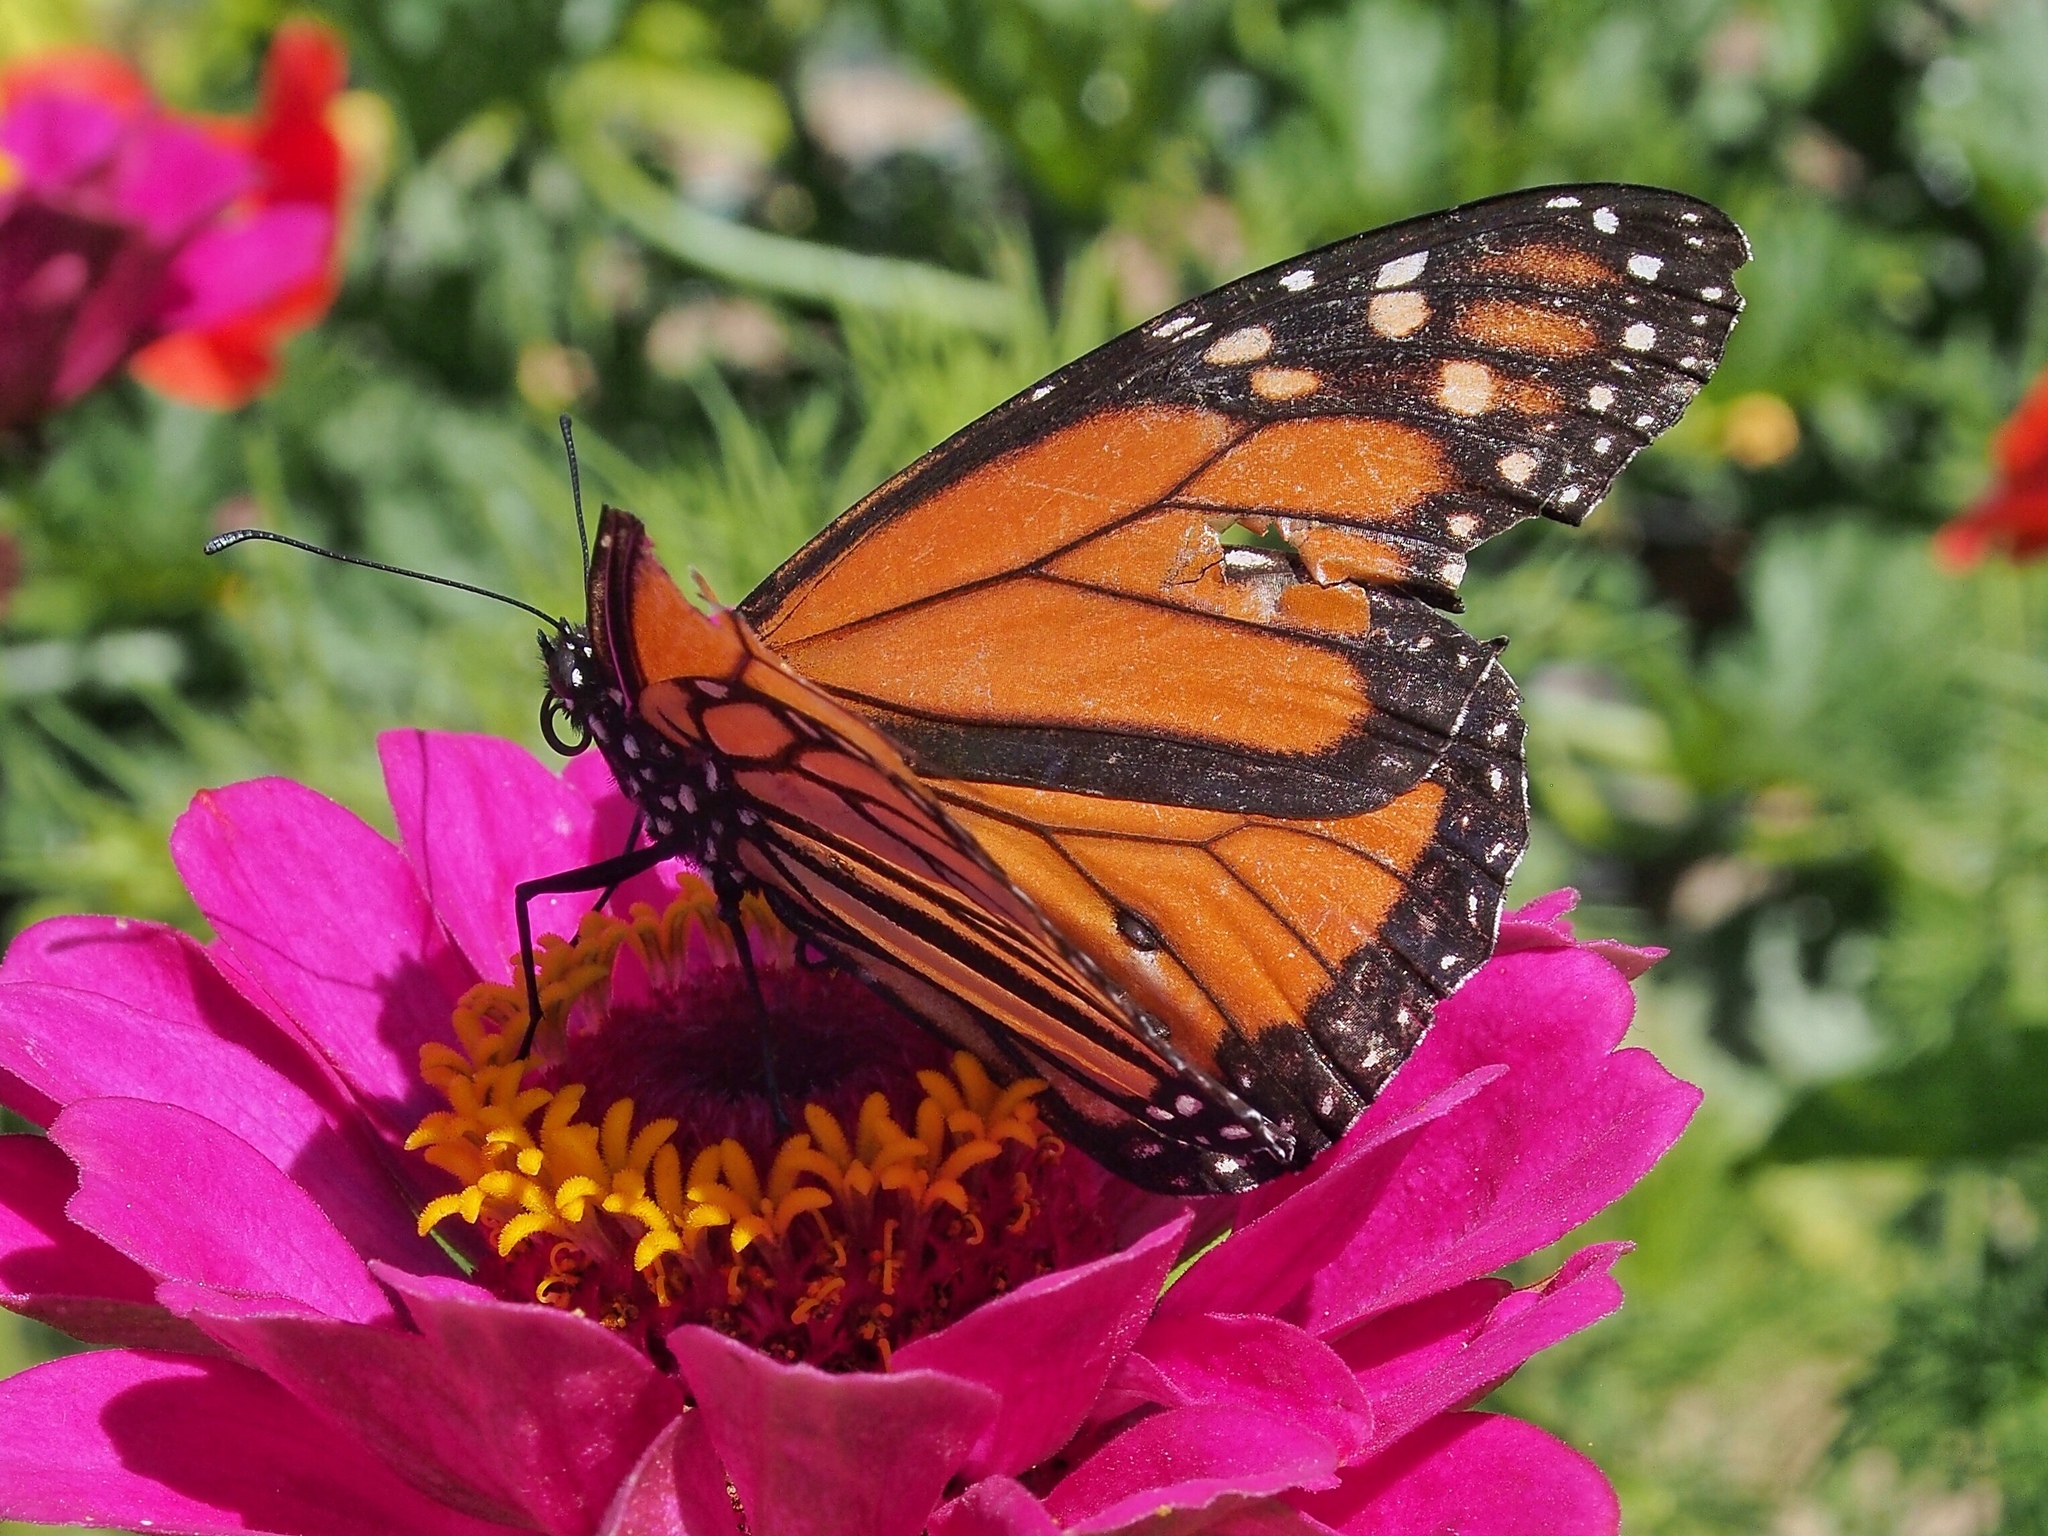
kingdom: Animalia
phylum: Arthropoda
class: Insecta
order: Lepidoptera
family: Nymphalidae
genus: Danaus
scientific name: Danaus plexippus
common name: Monarch
